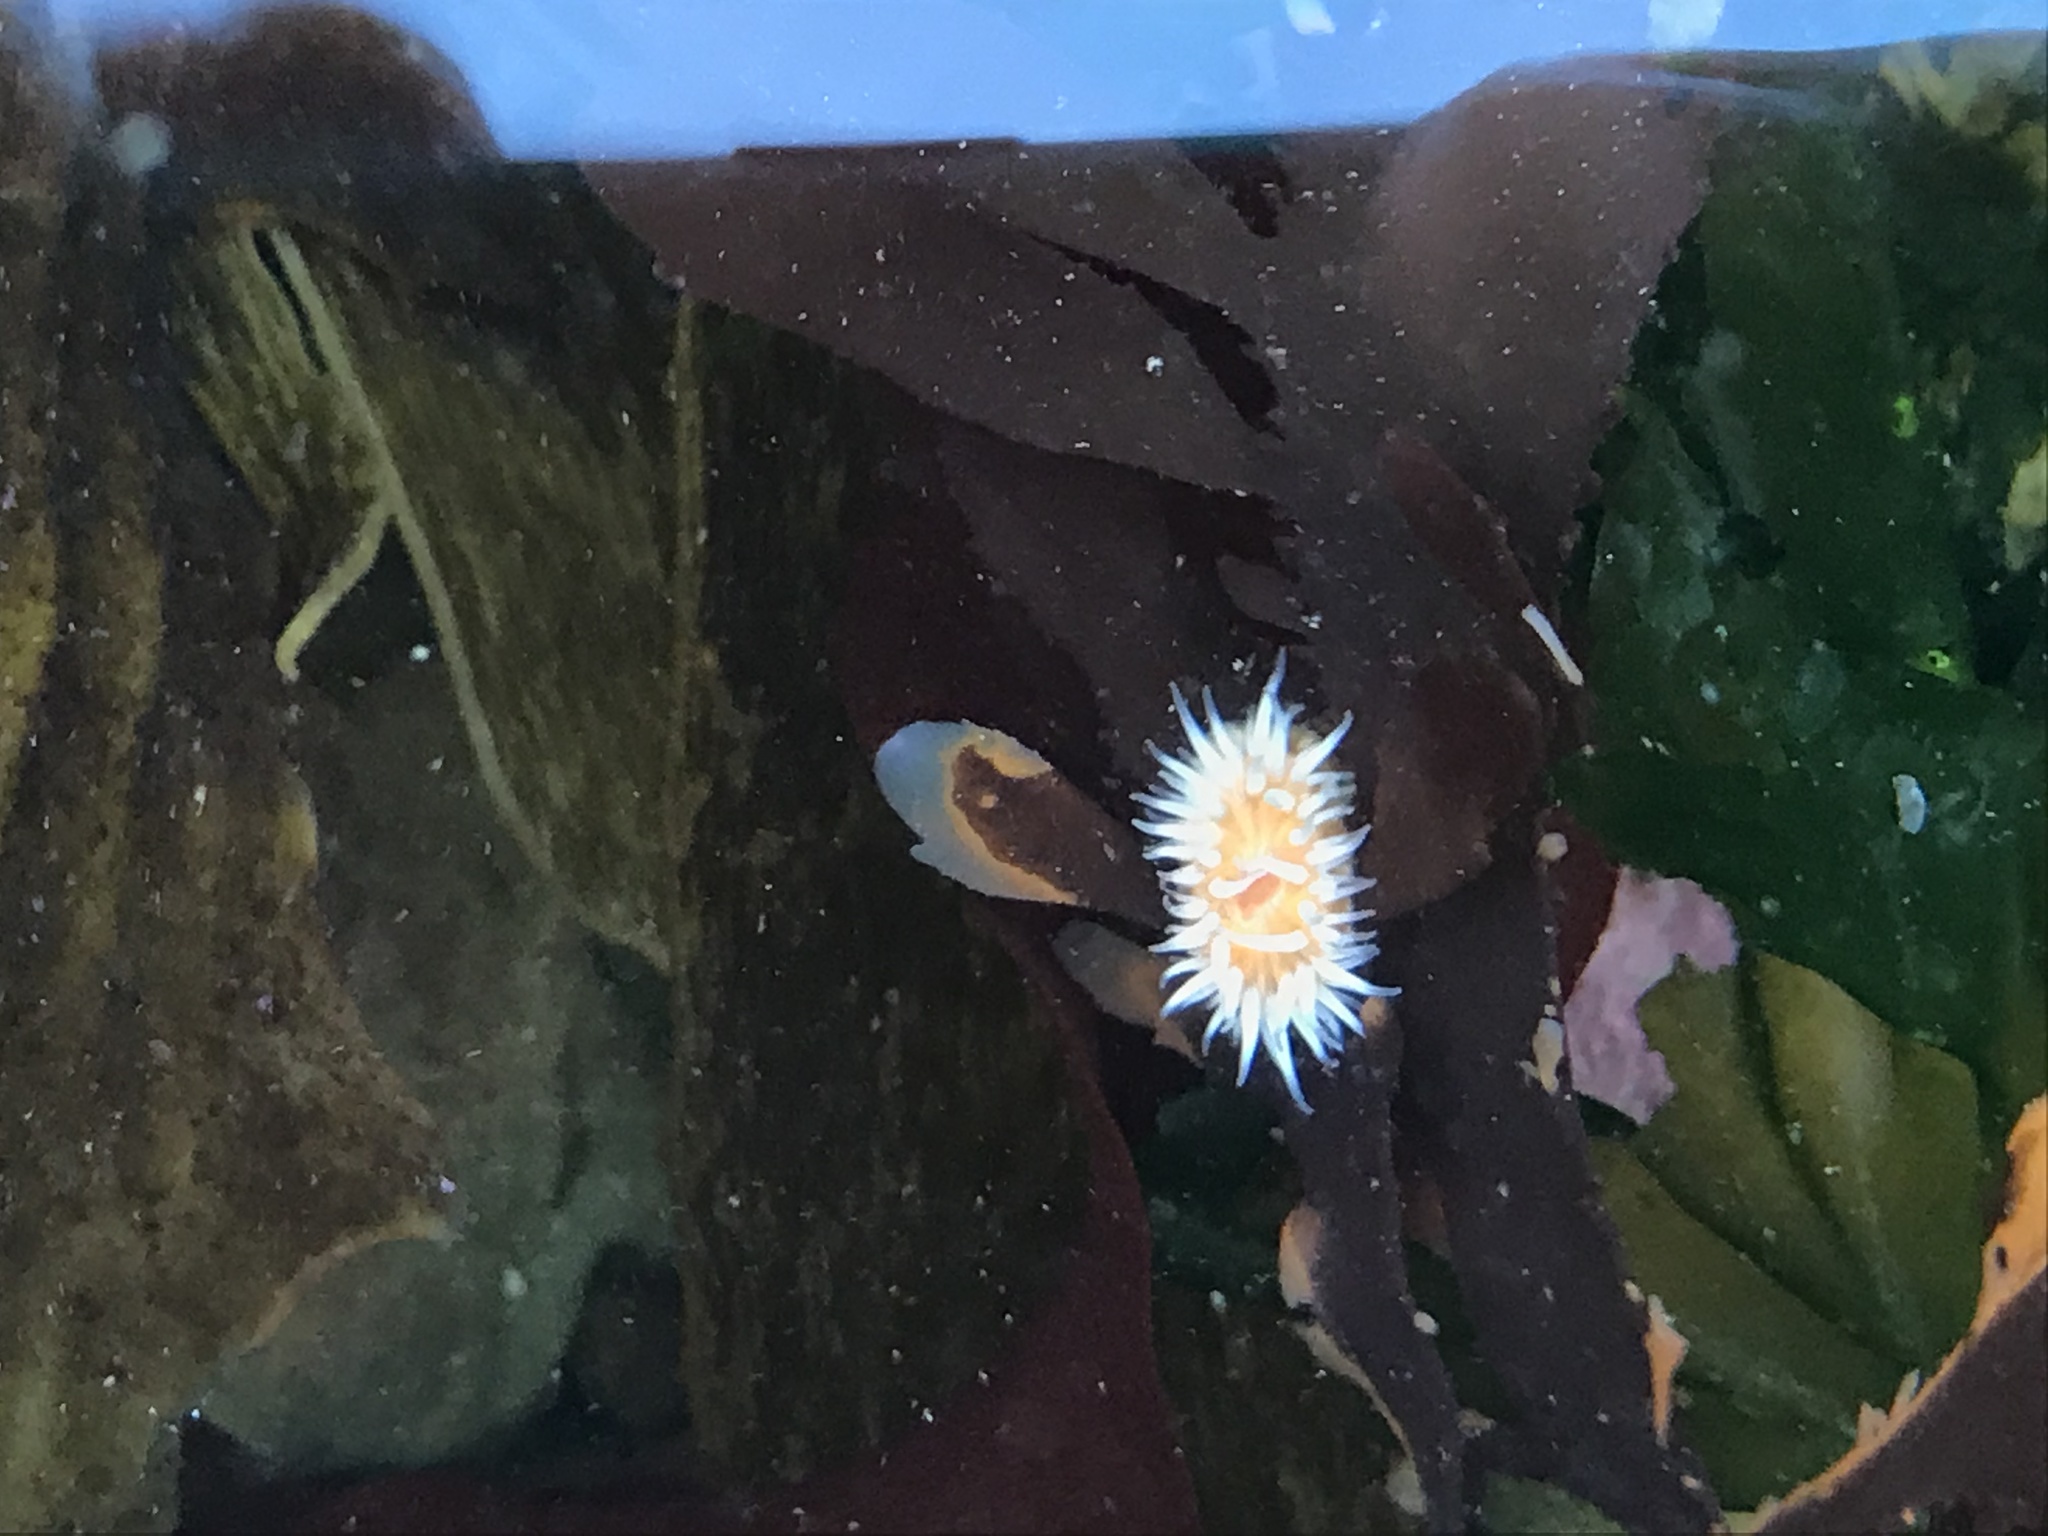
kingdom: Animalia
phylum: Cnidaria
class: Anthozoa
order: Actiniaria
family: Sagartiidae
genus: Anthothoe
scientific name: Anthothoe albocincta
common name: Orange striped anemone
